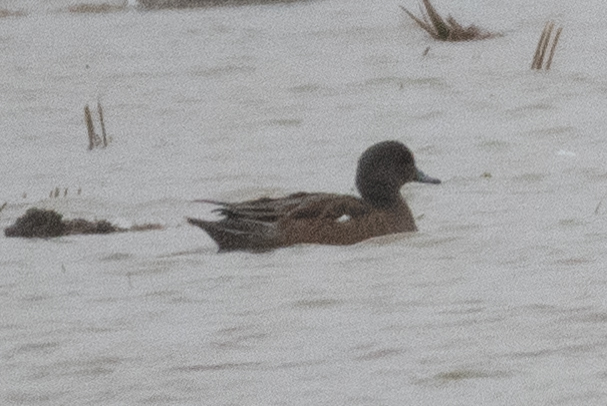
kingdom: Animalia
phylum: Chordata
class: Aves
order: Anseriformes
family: Anatidae
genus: Mareca
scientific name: Mareca americana
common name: American wigeon
